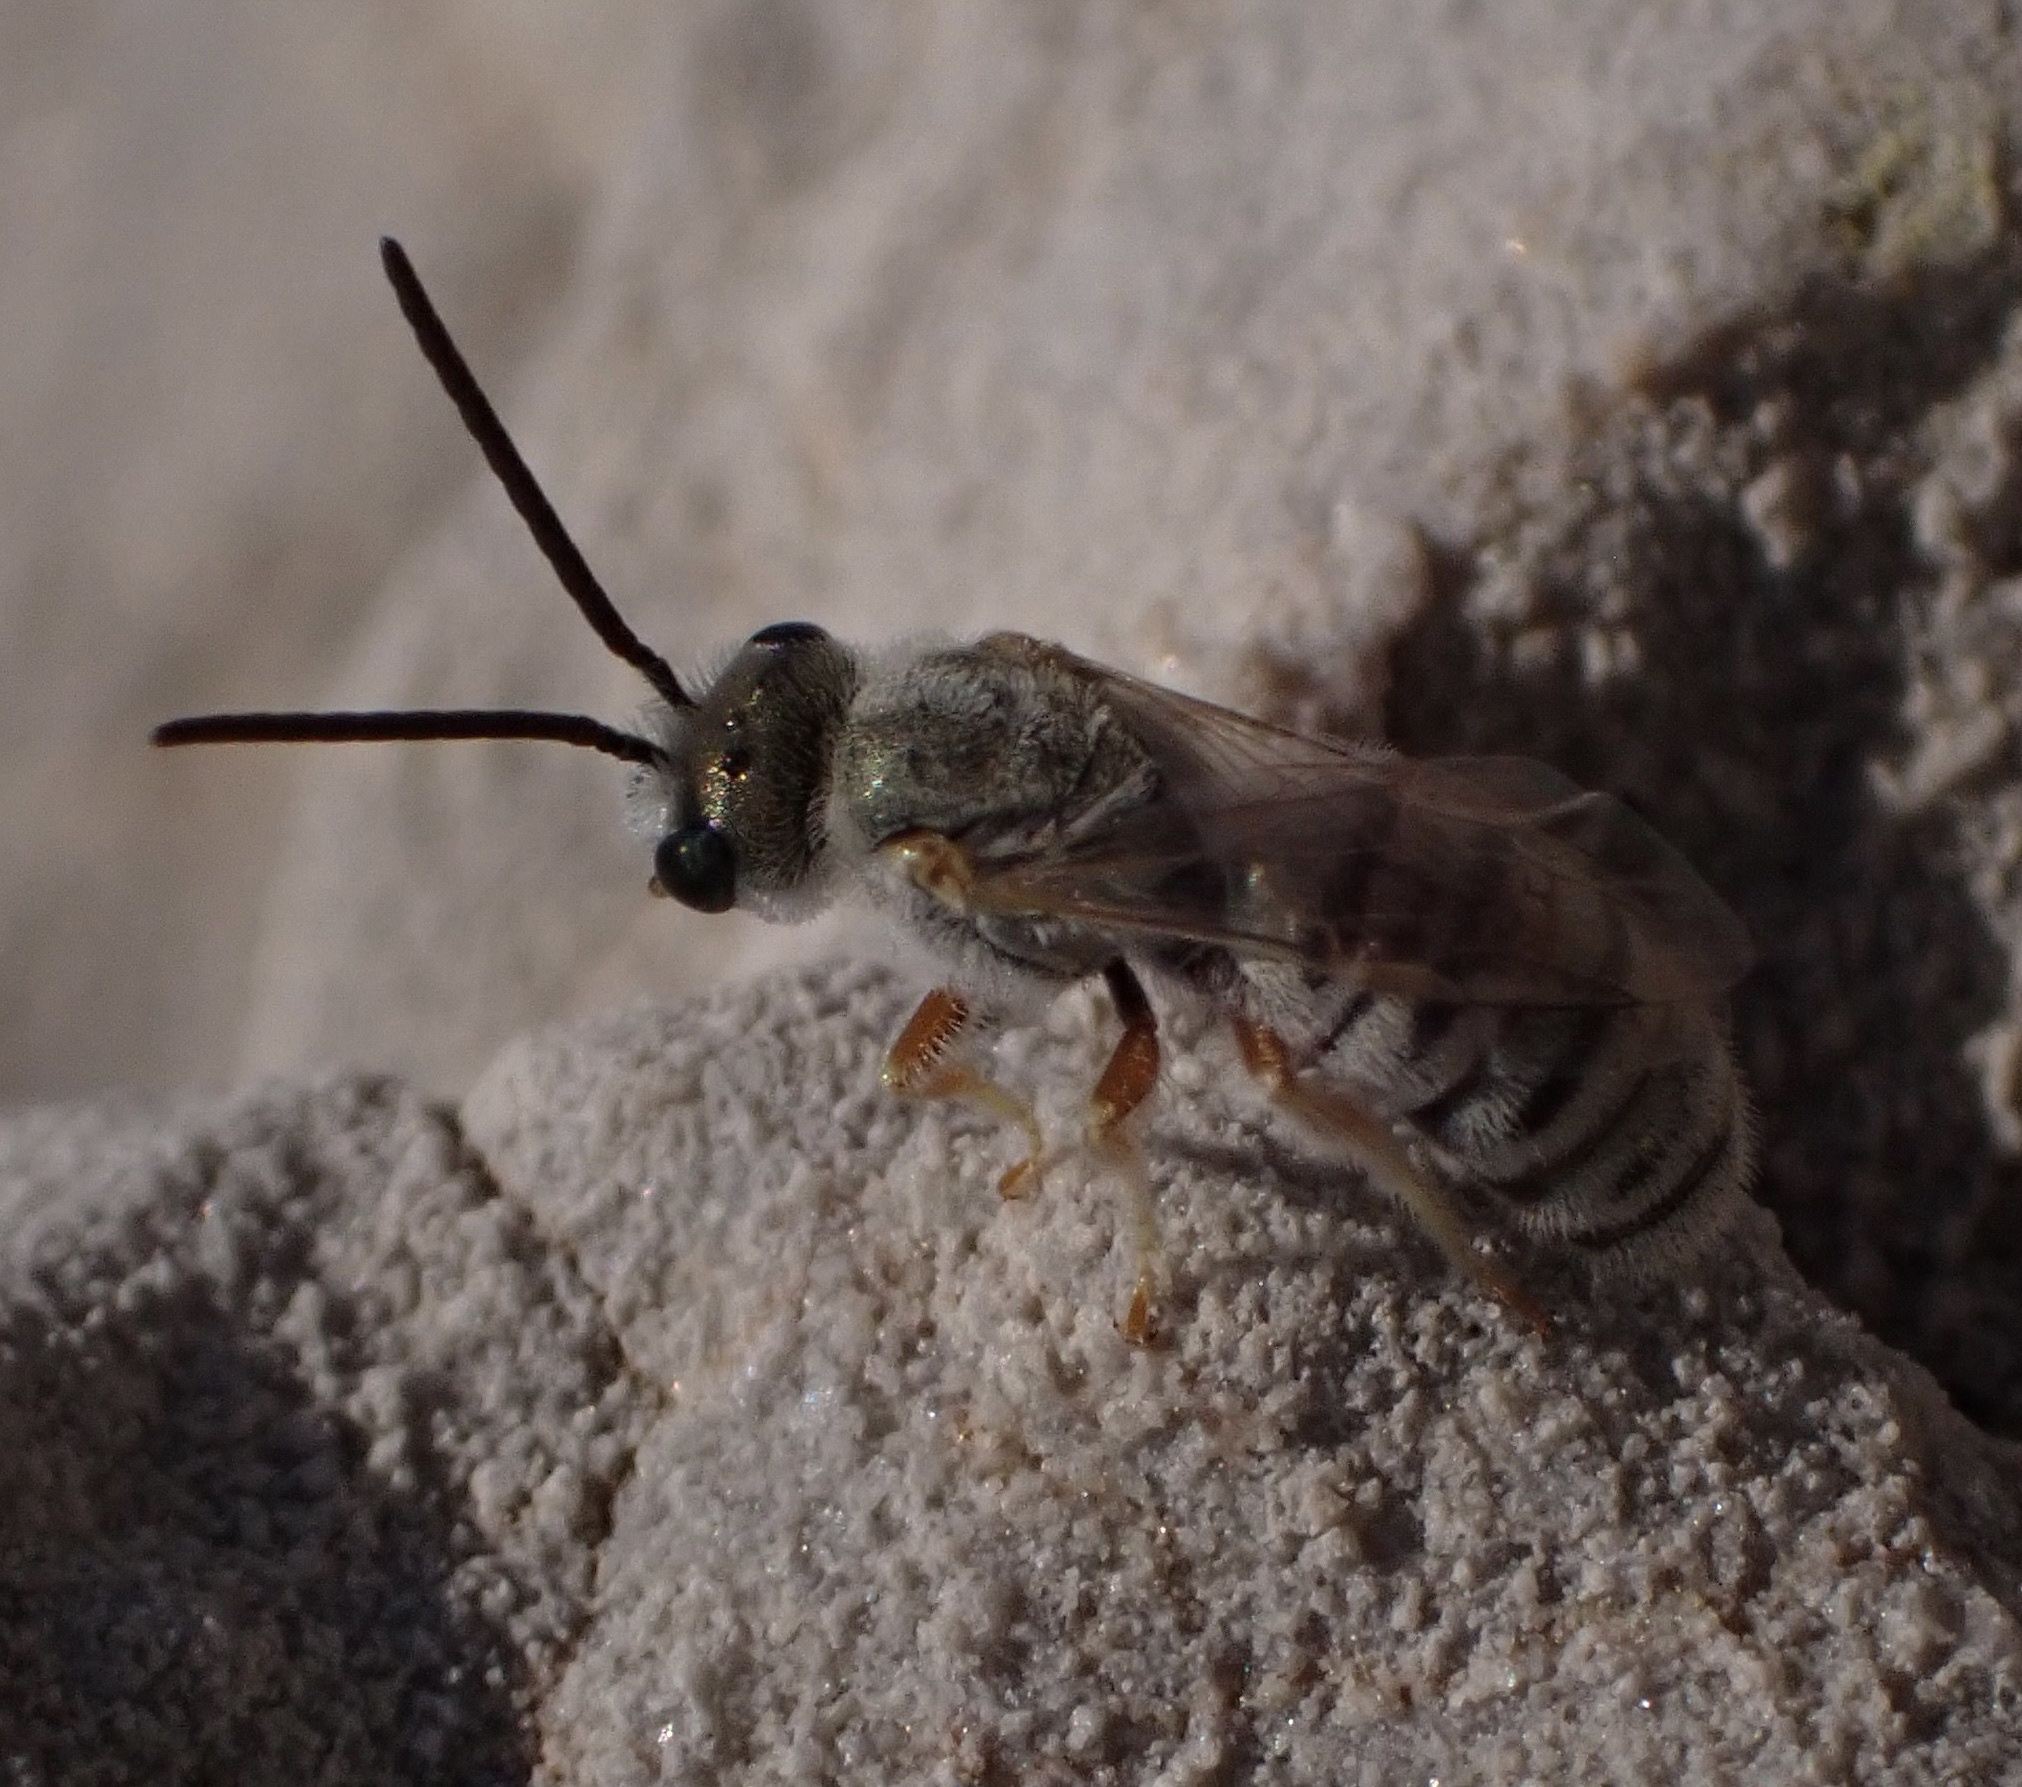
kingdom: Animalia
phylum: Arthropoda
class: Insecta
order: Hymenoptera
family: Halictidae
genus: Halictus
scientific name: Halictus vestitus
